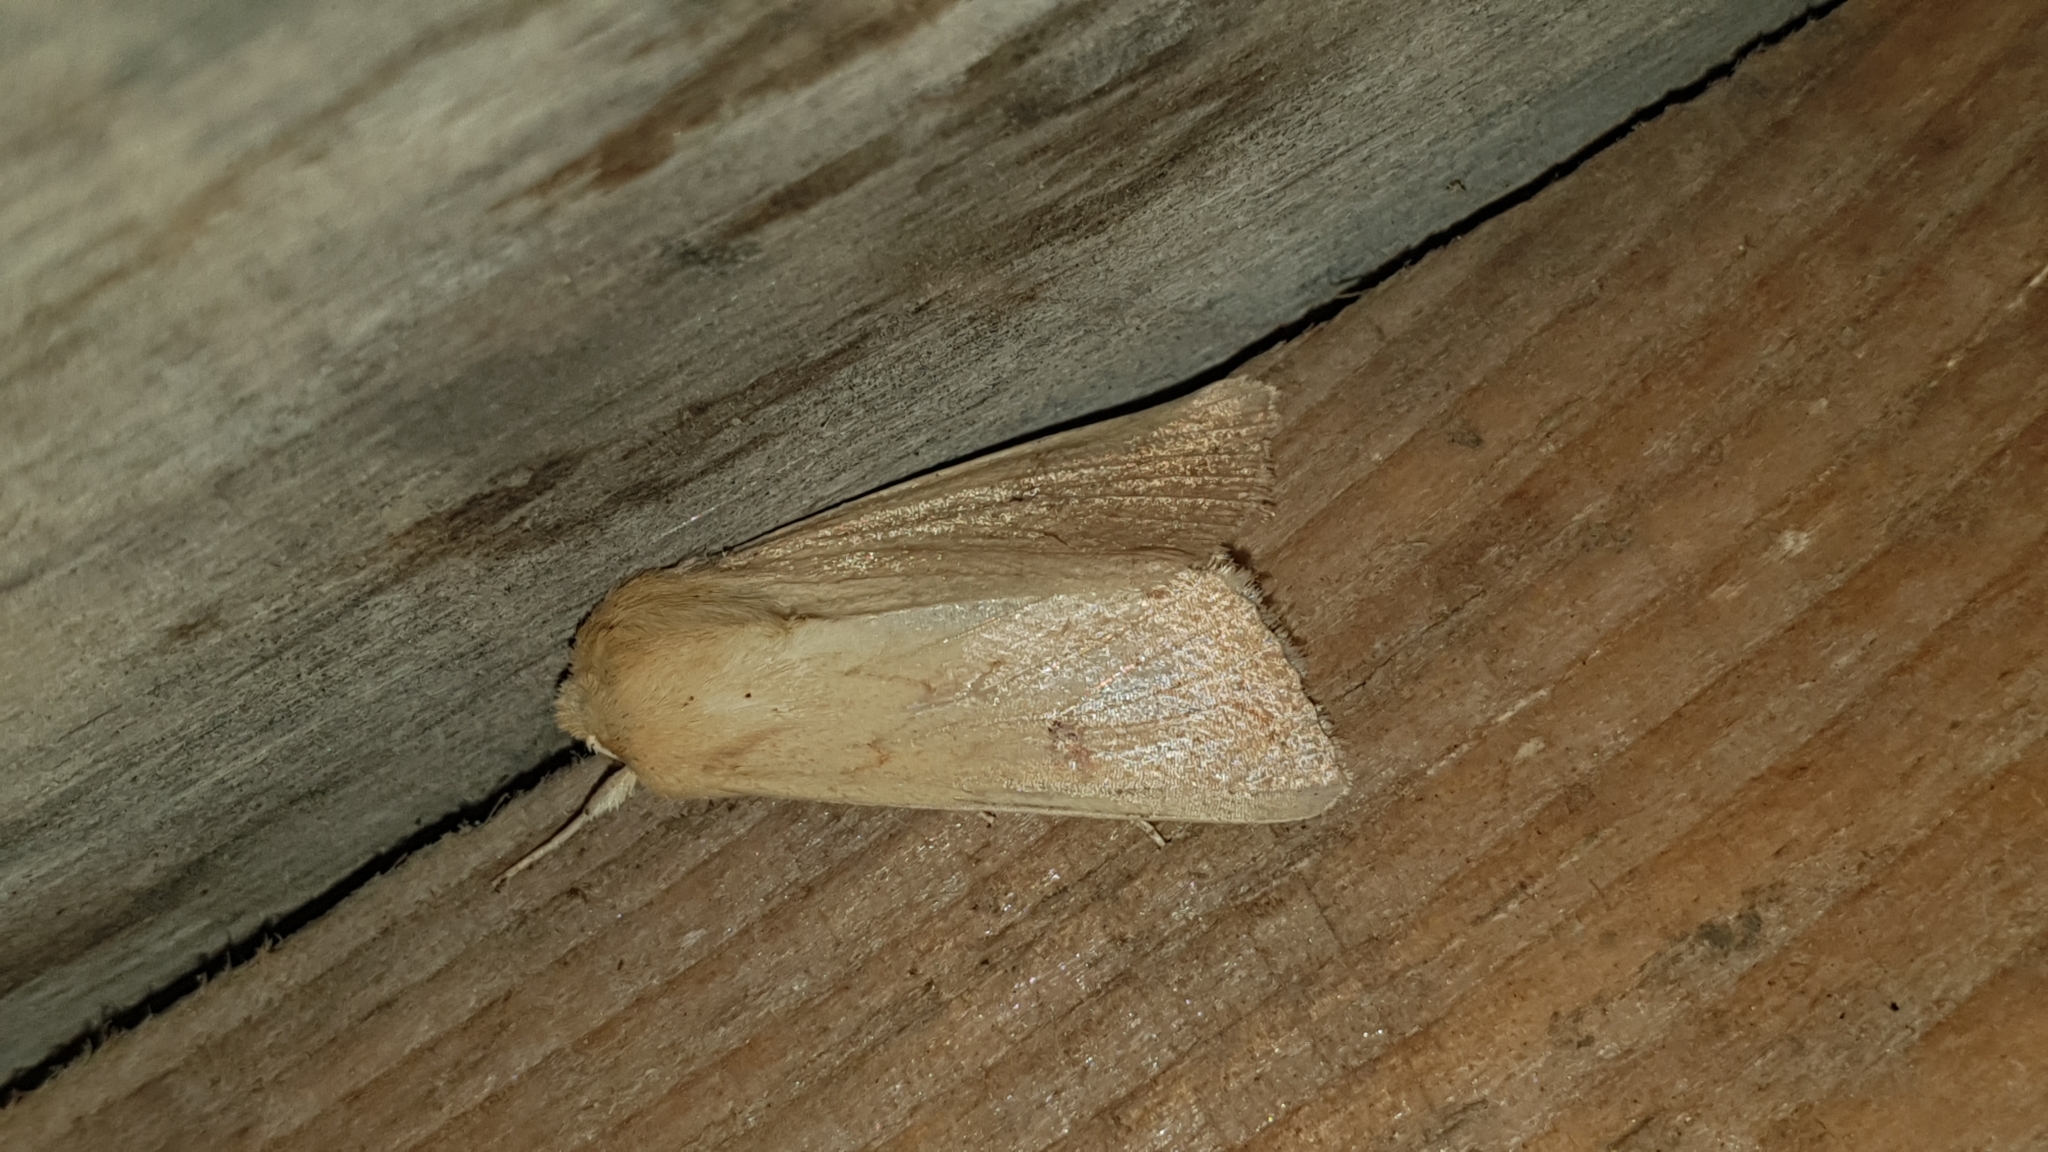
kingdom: Animalia
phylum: Arthropoda
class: Insecta
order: Lepidoptera
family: Noctuidae
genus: Mythimna
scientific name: Mythimna vitellina
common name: Delicate
